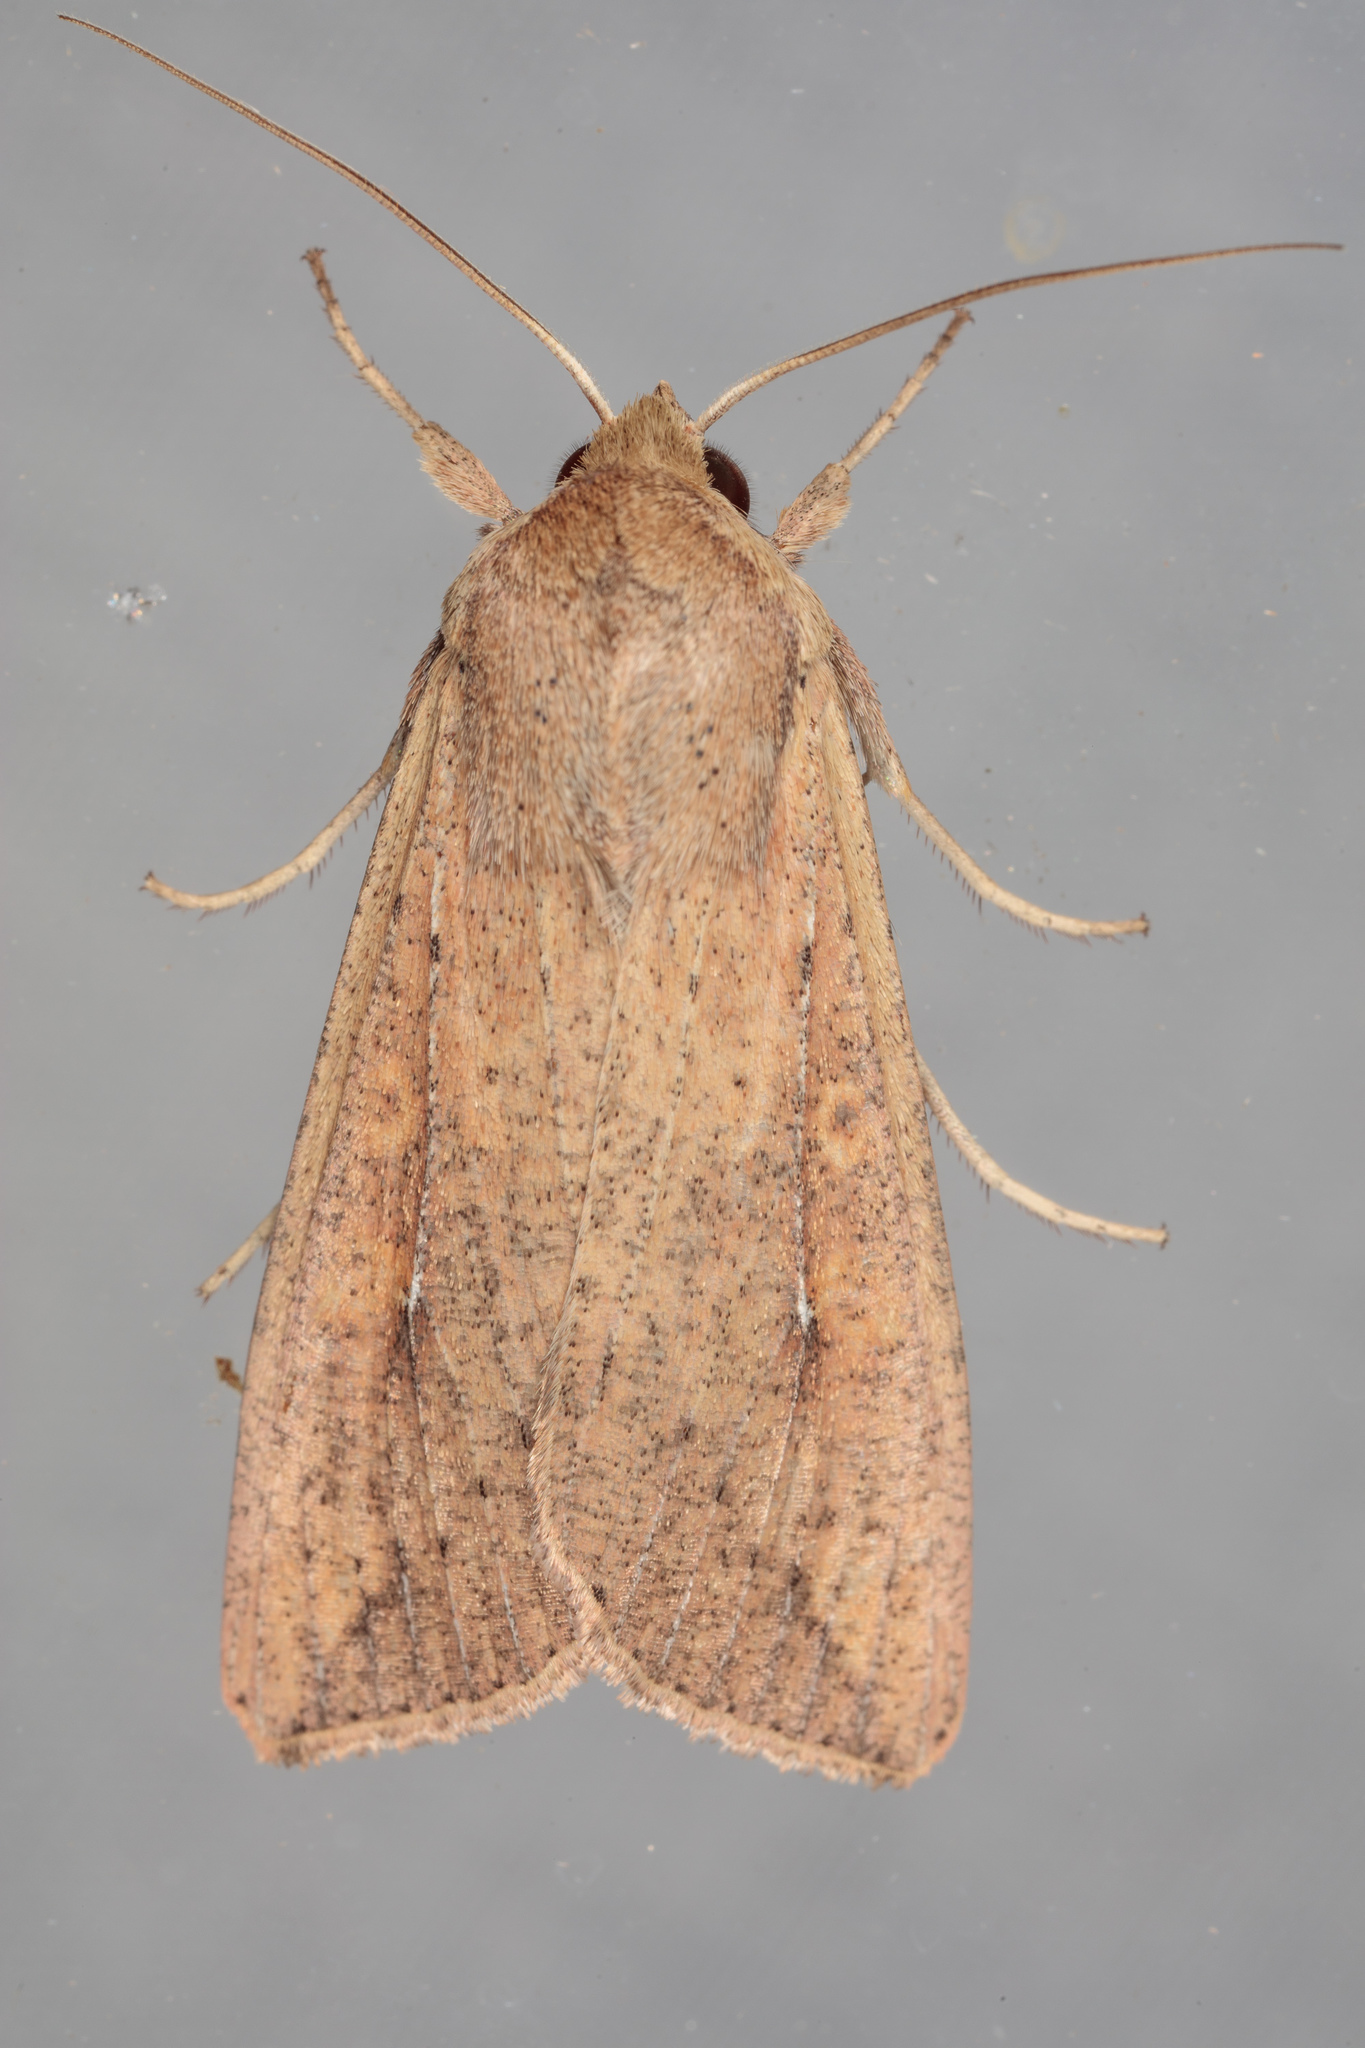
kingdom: Animalia
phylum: Arthropoda
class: Insecta
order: Lepidoptera
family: Noctuidae
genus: Mythimna
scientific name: Mythimna unipuncta
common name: White-speck
